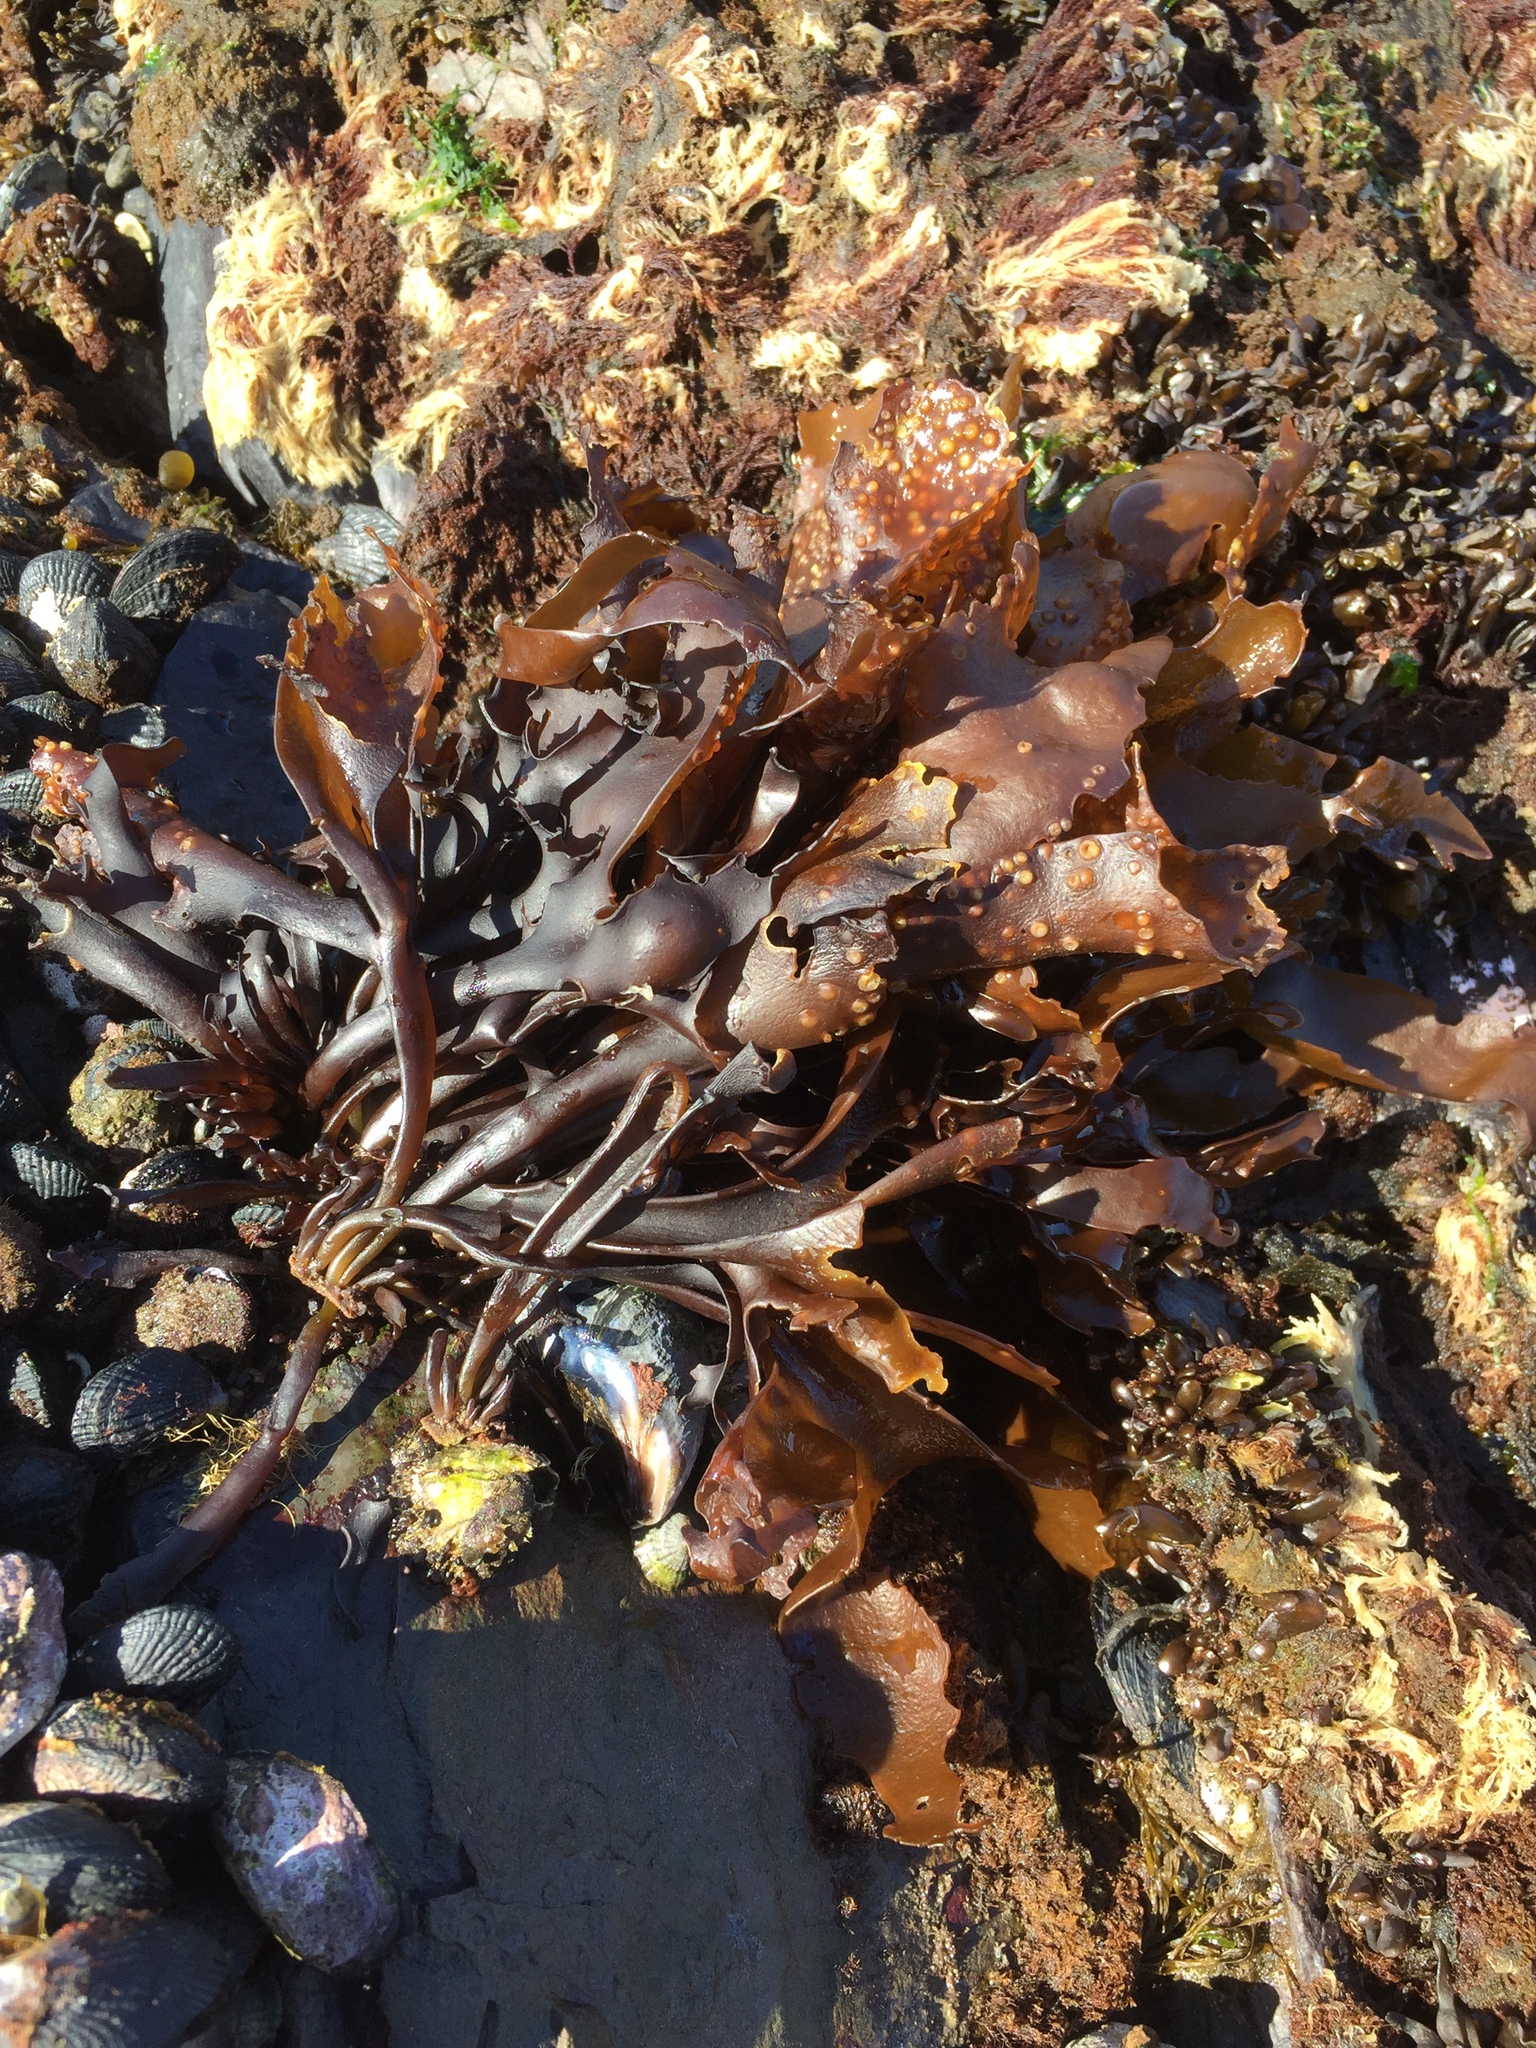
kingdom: Plantae
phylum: Rhodophyta
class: Florideophyceae
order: Gigartinales
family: Gigartinaceae
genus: Mazzaella
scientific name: Mazzaella laminarioides
